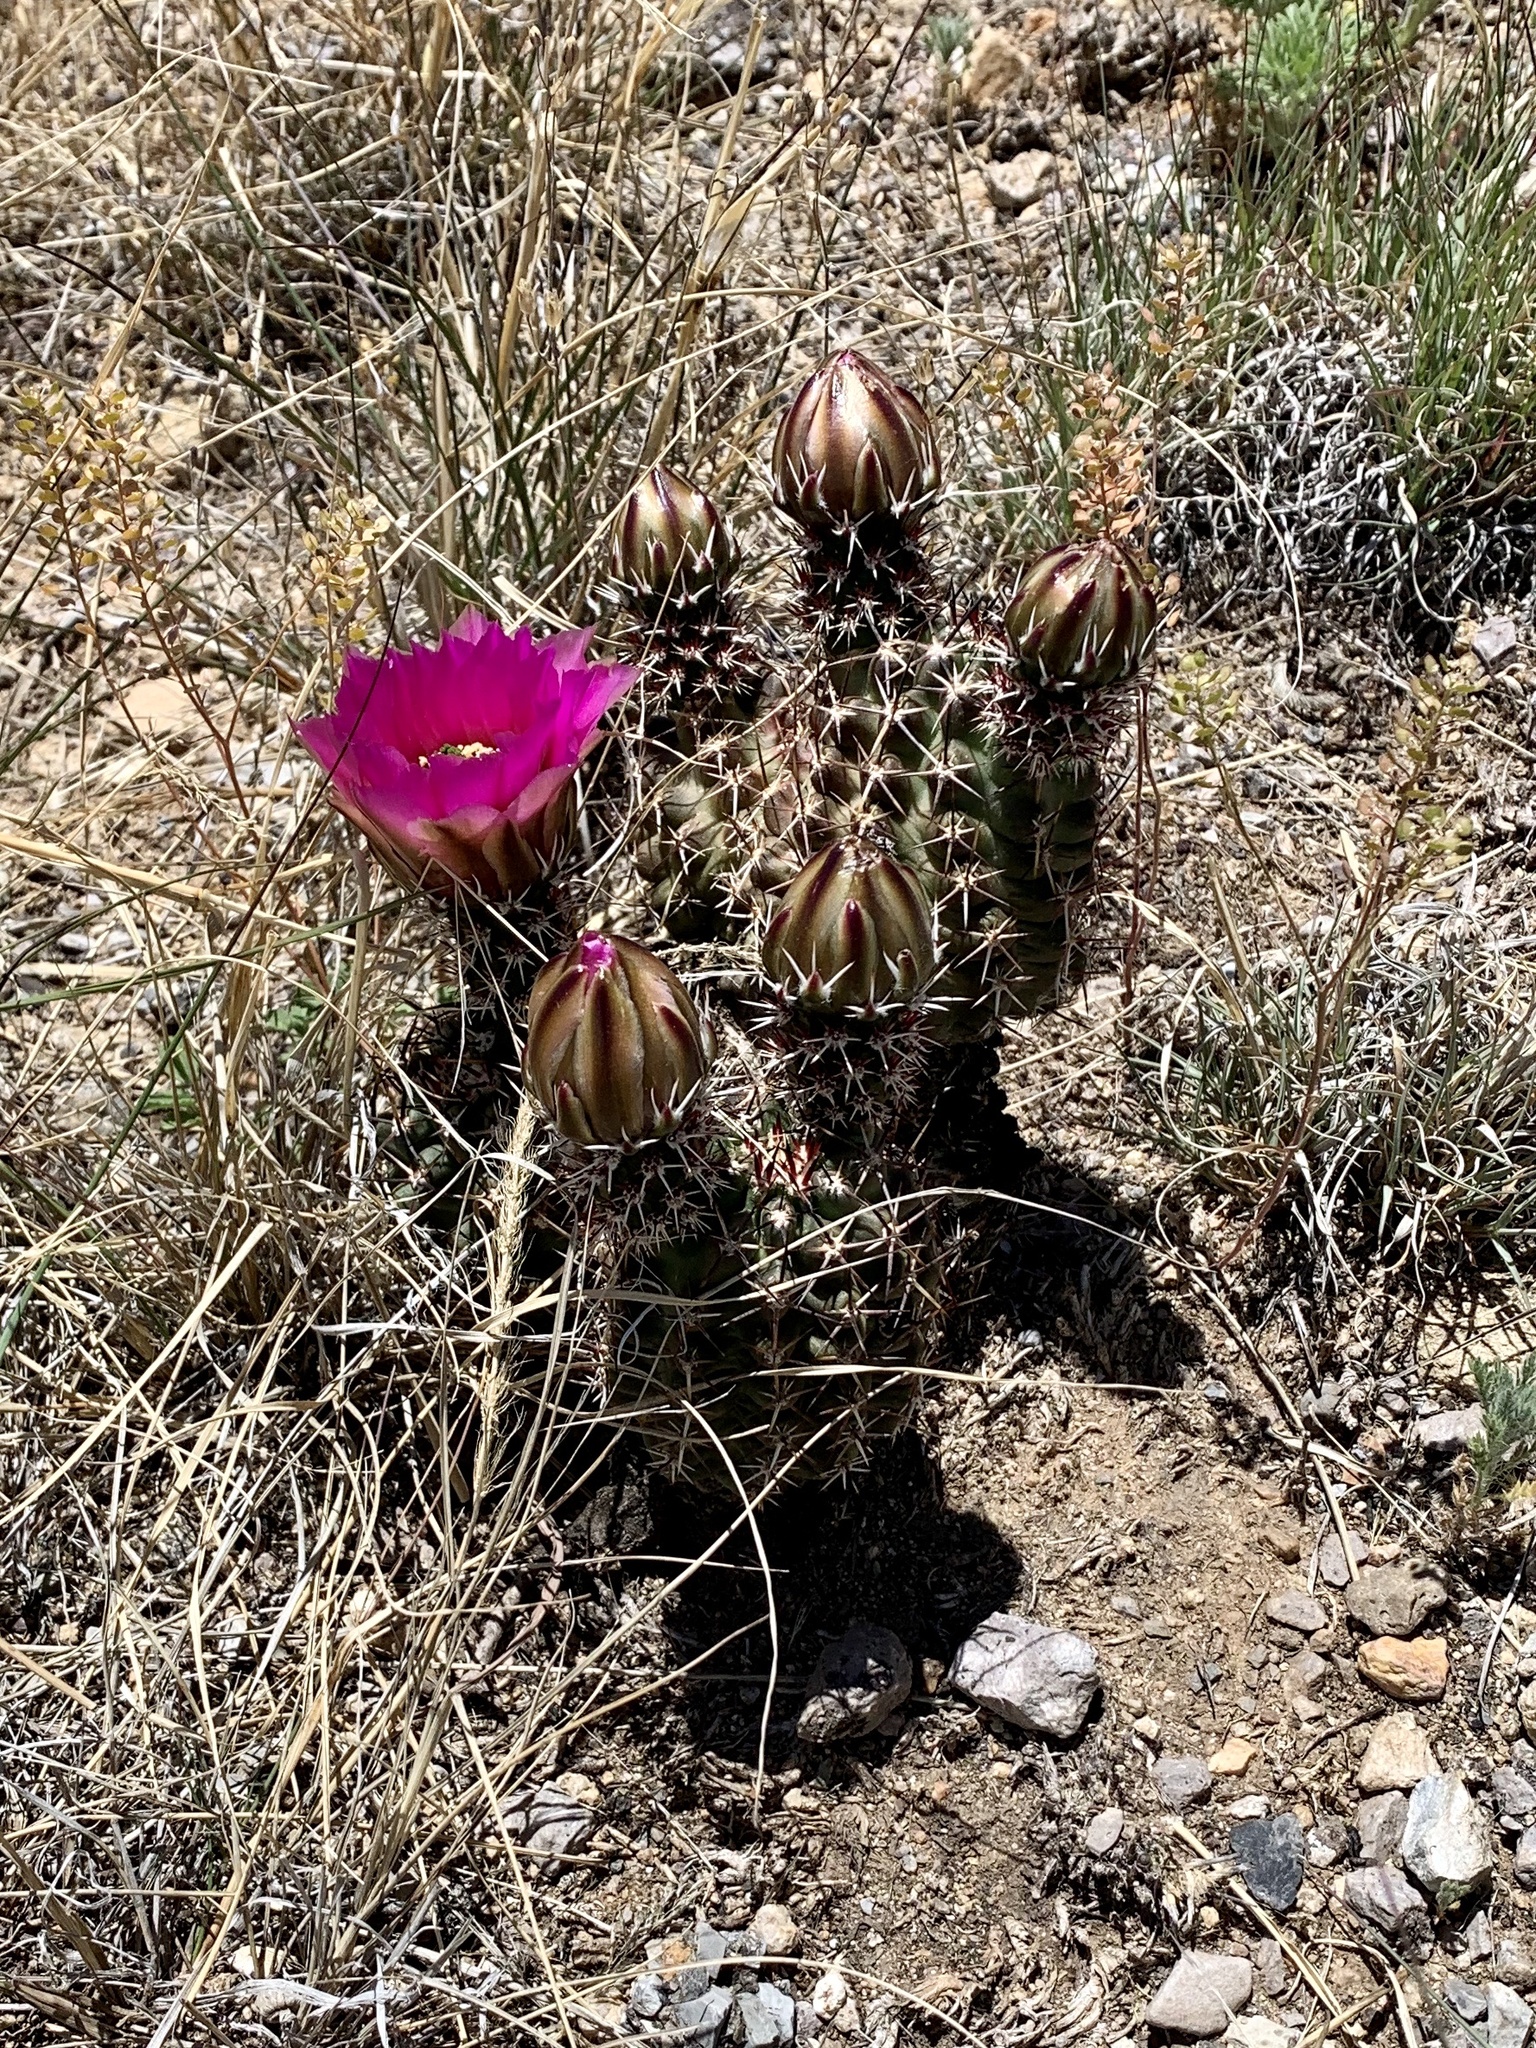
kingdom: Plantae
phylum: Tracheophyta
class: Magnoliopsida
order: Caryophyllales
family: Cactaceae
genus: Echinocereus
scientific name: Echinocereus fendleri
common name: Fendler's hedgehog cactus
